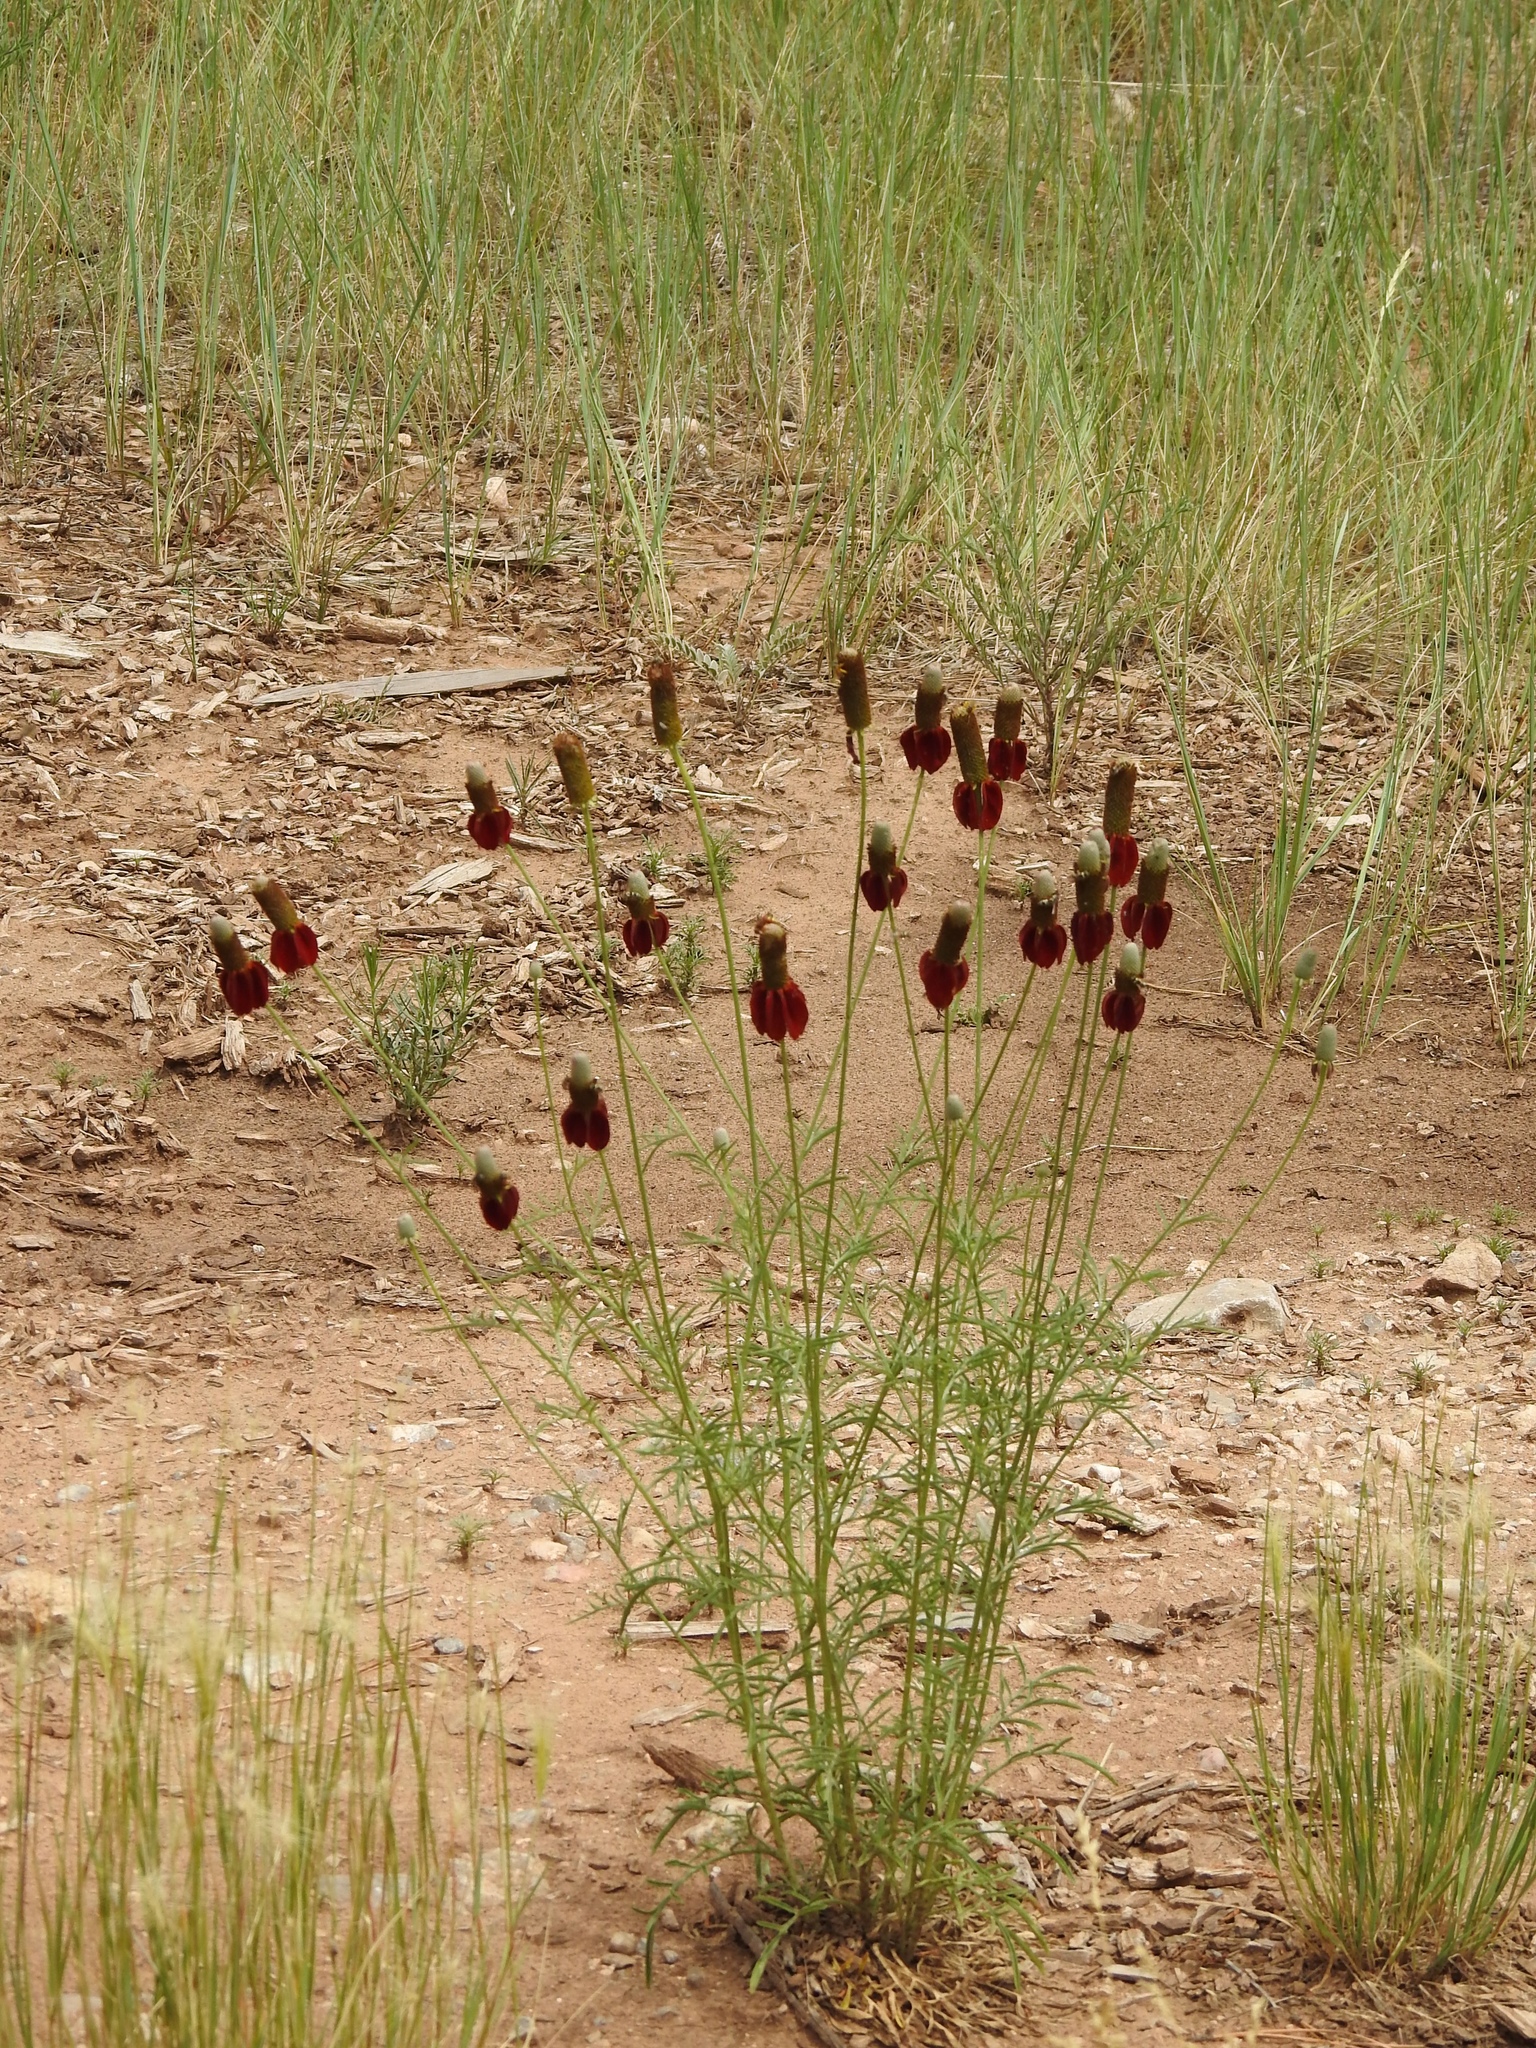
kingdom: Plantae
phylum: Tracheophyta
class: Magnoliopsida
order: Asterales
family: Asteraceae
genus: Ratibida
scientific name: Ratibida columnifera
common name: Prairie coneflower
